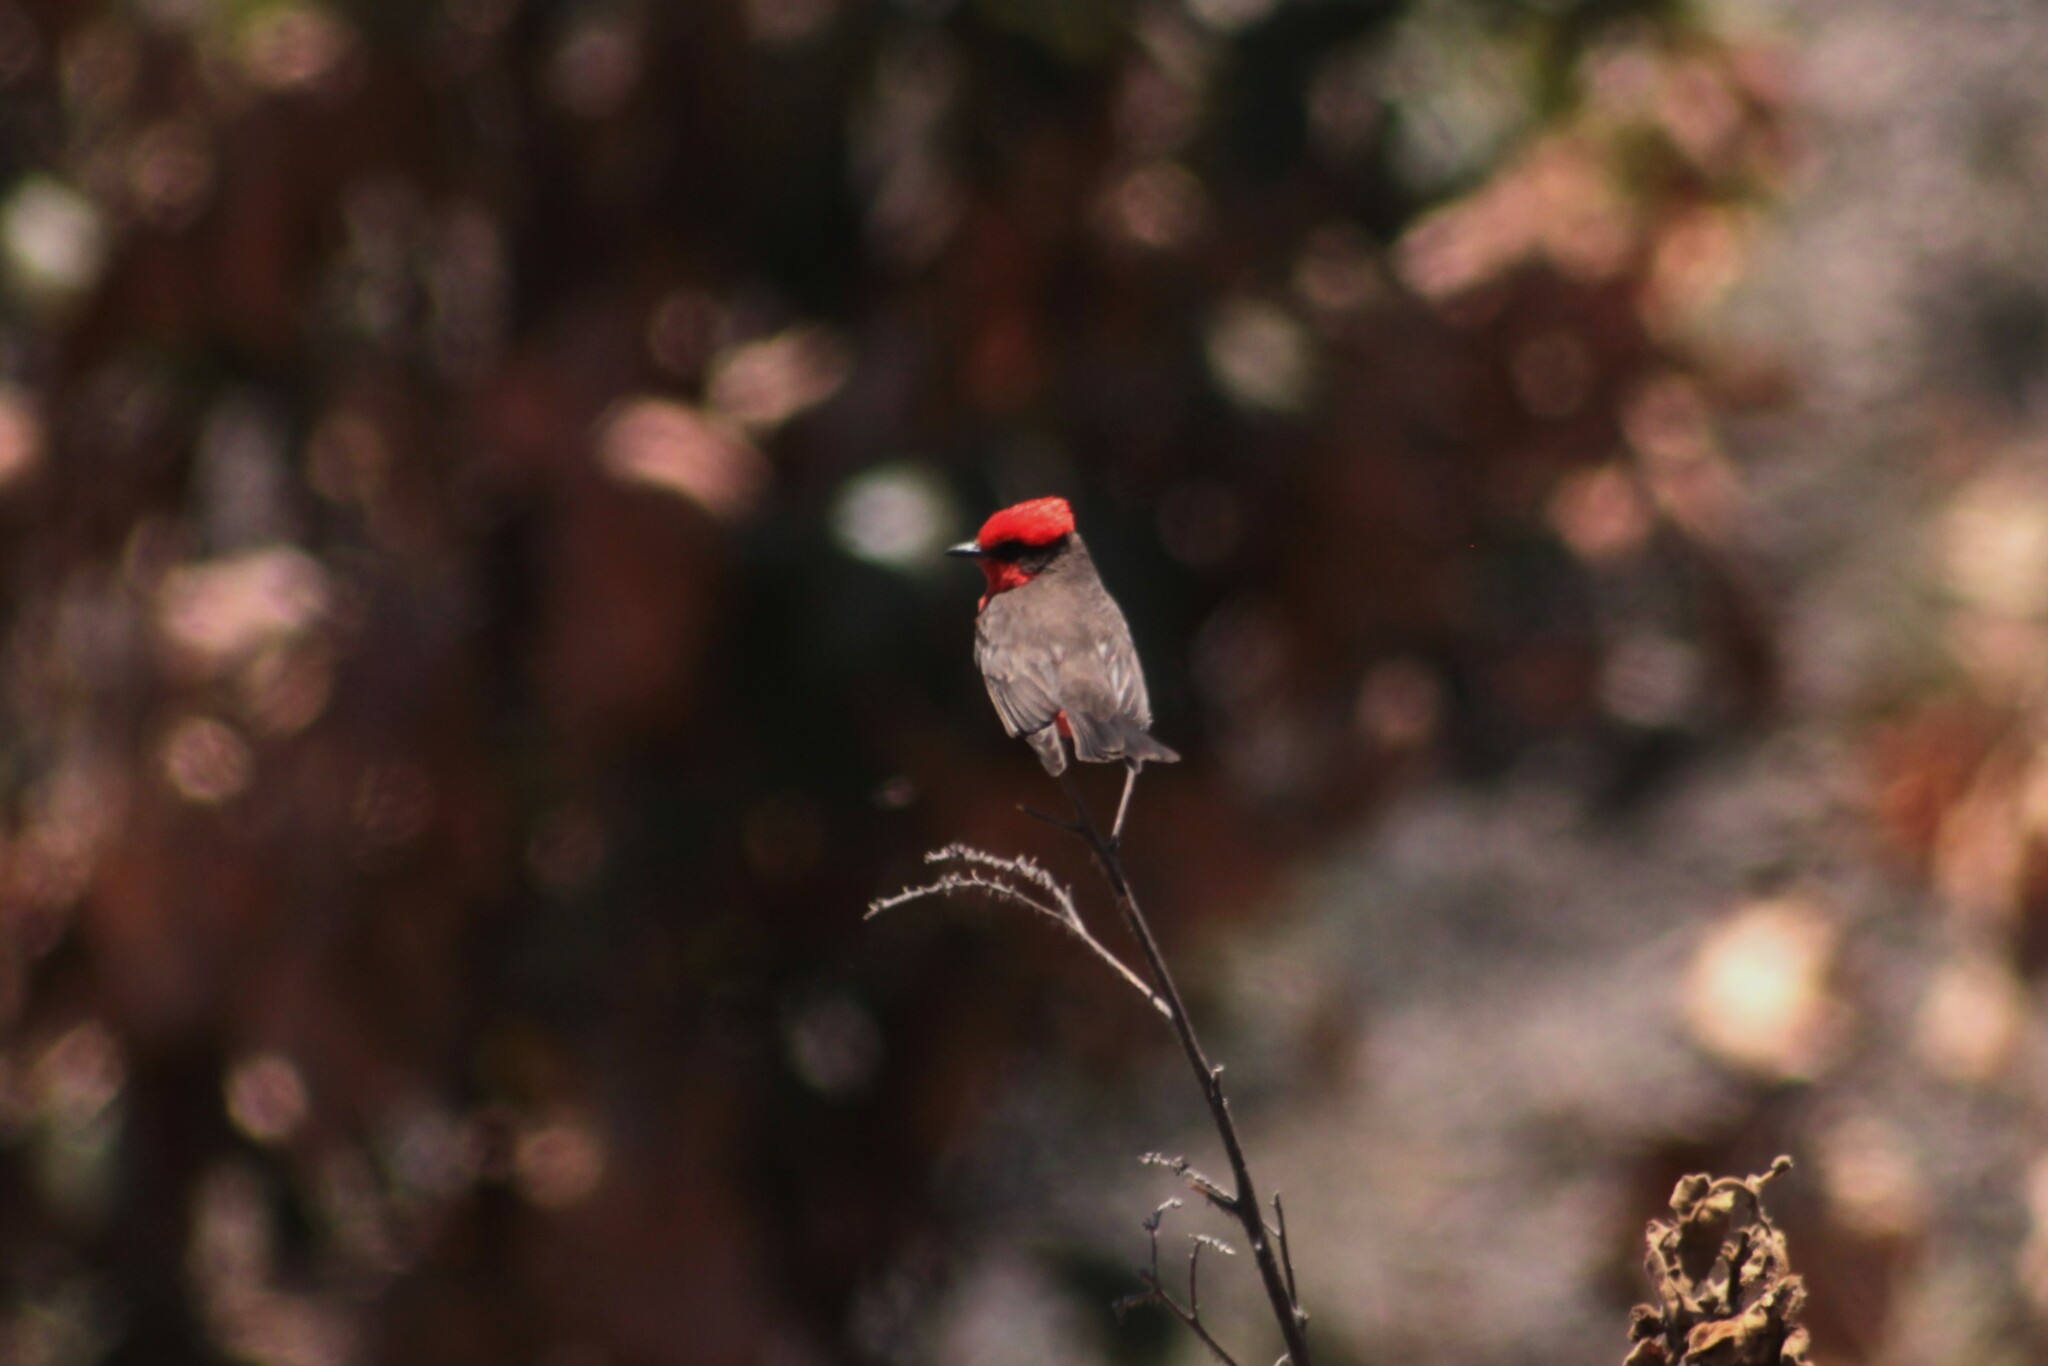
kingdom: Animalia
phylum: Chordata
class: Aves
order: Passeriformes
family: Tyrannidae
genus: Pyrocephalus
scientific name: Pyrocephalus rubinus
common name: Vermilion flycatcher
